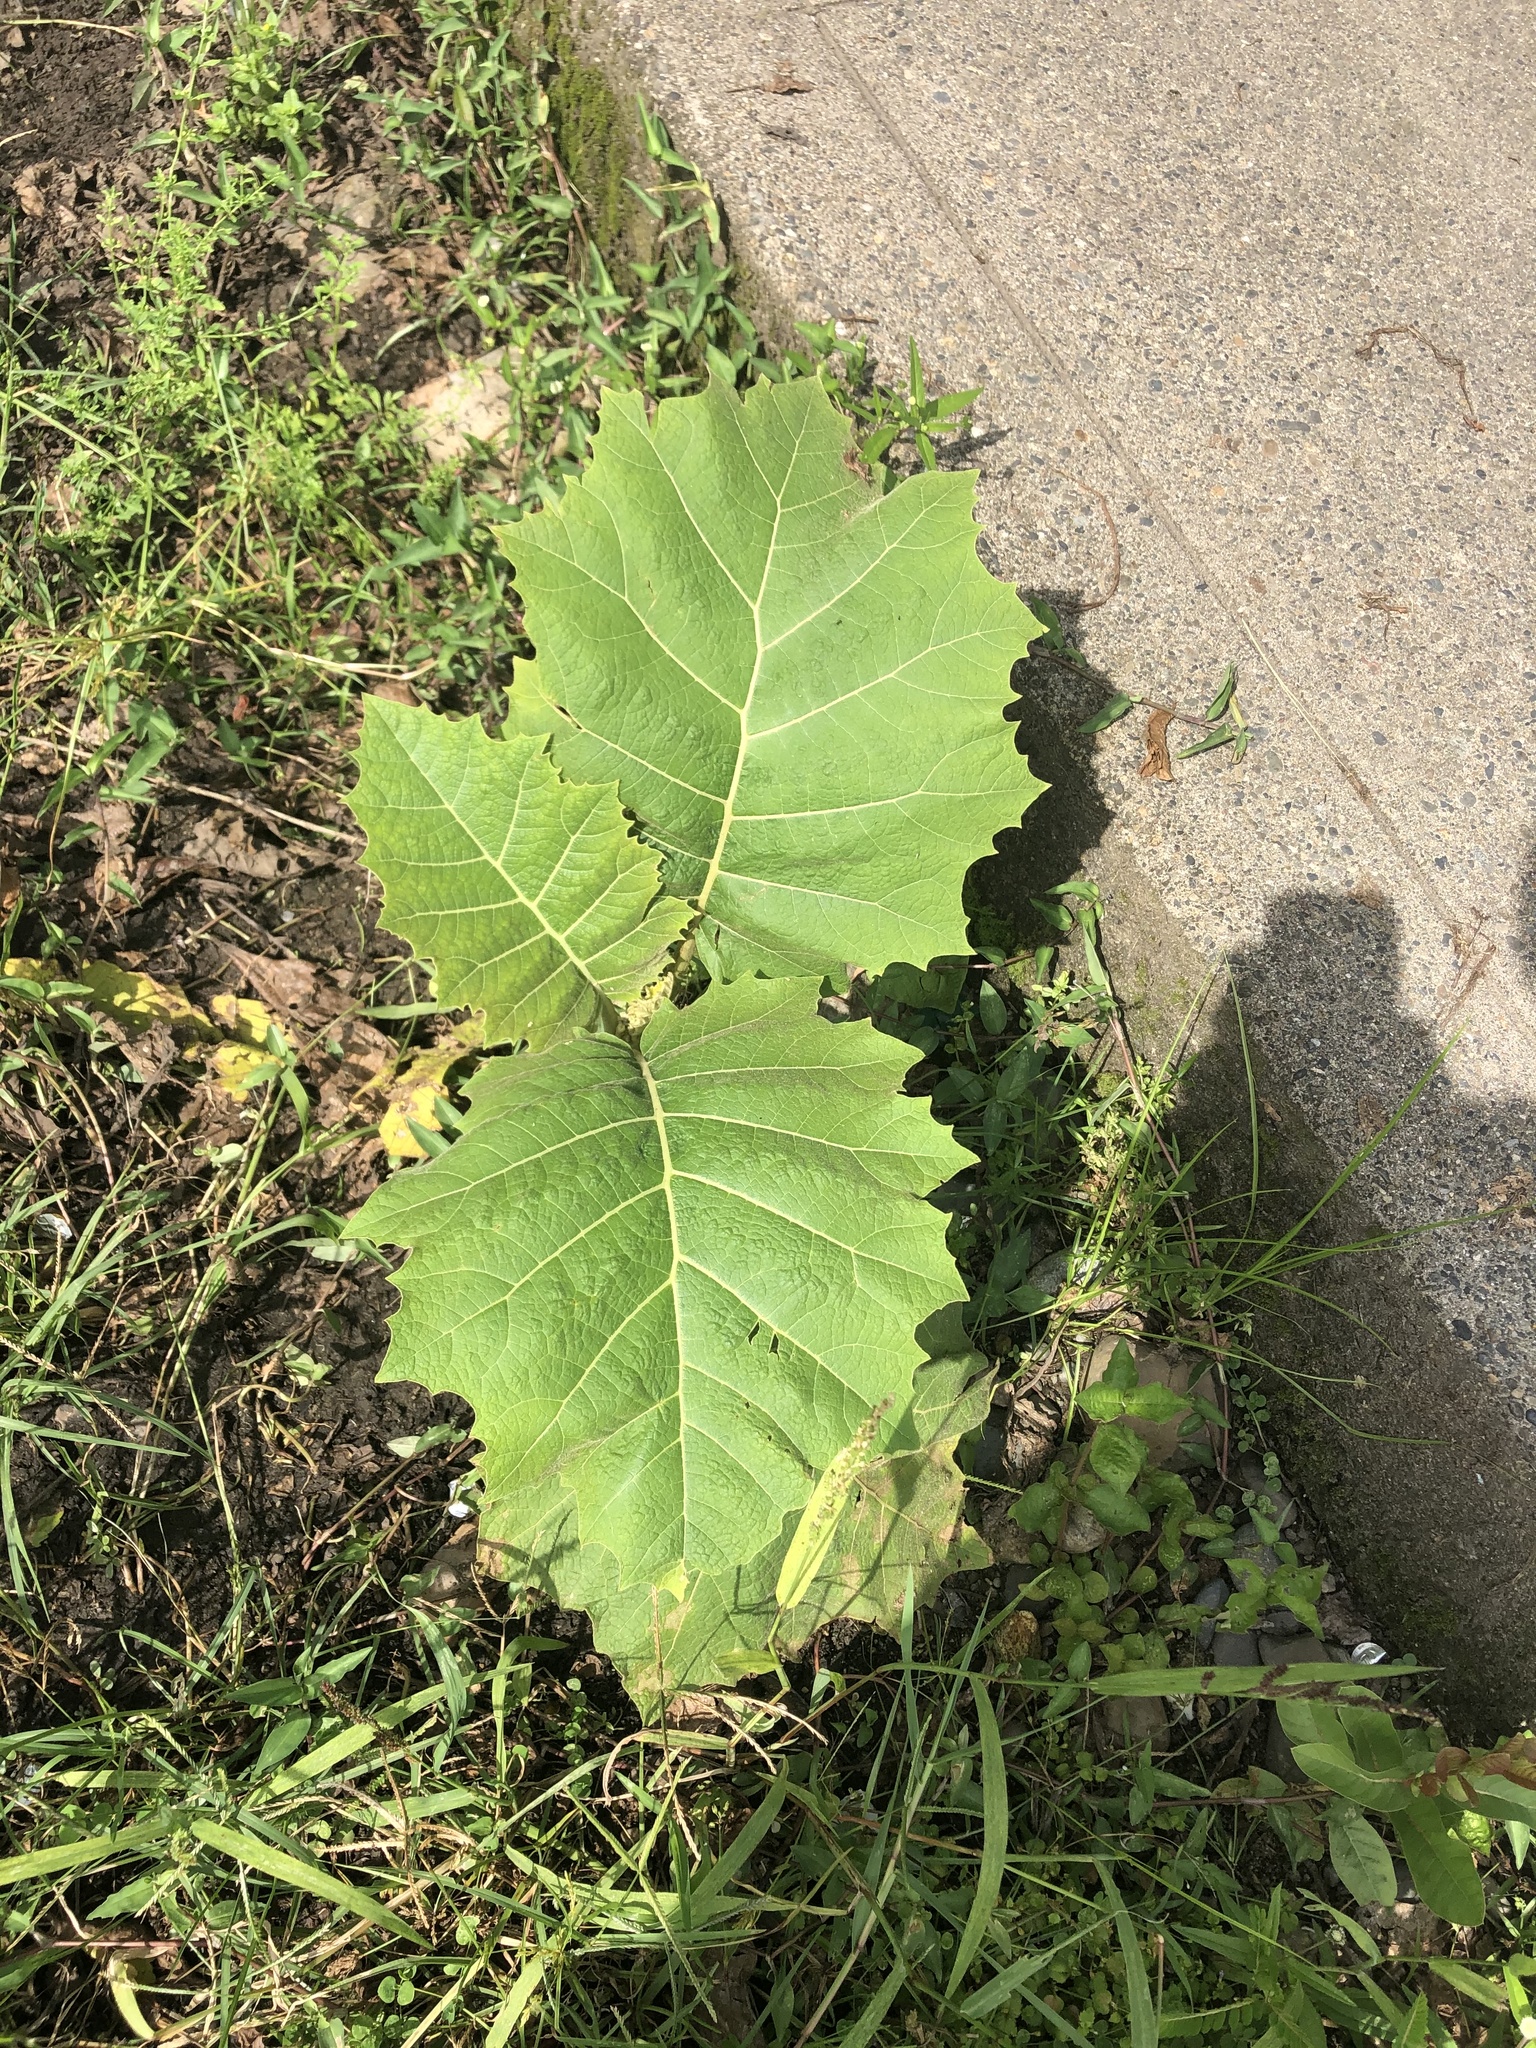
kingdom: Plantae
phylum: Tracheophyta
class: Magnoliopsida
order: Solanales
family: Solanaceae
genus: Solanum
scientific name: Solanum sessiliflorum
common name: Orinoco-apple
